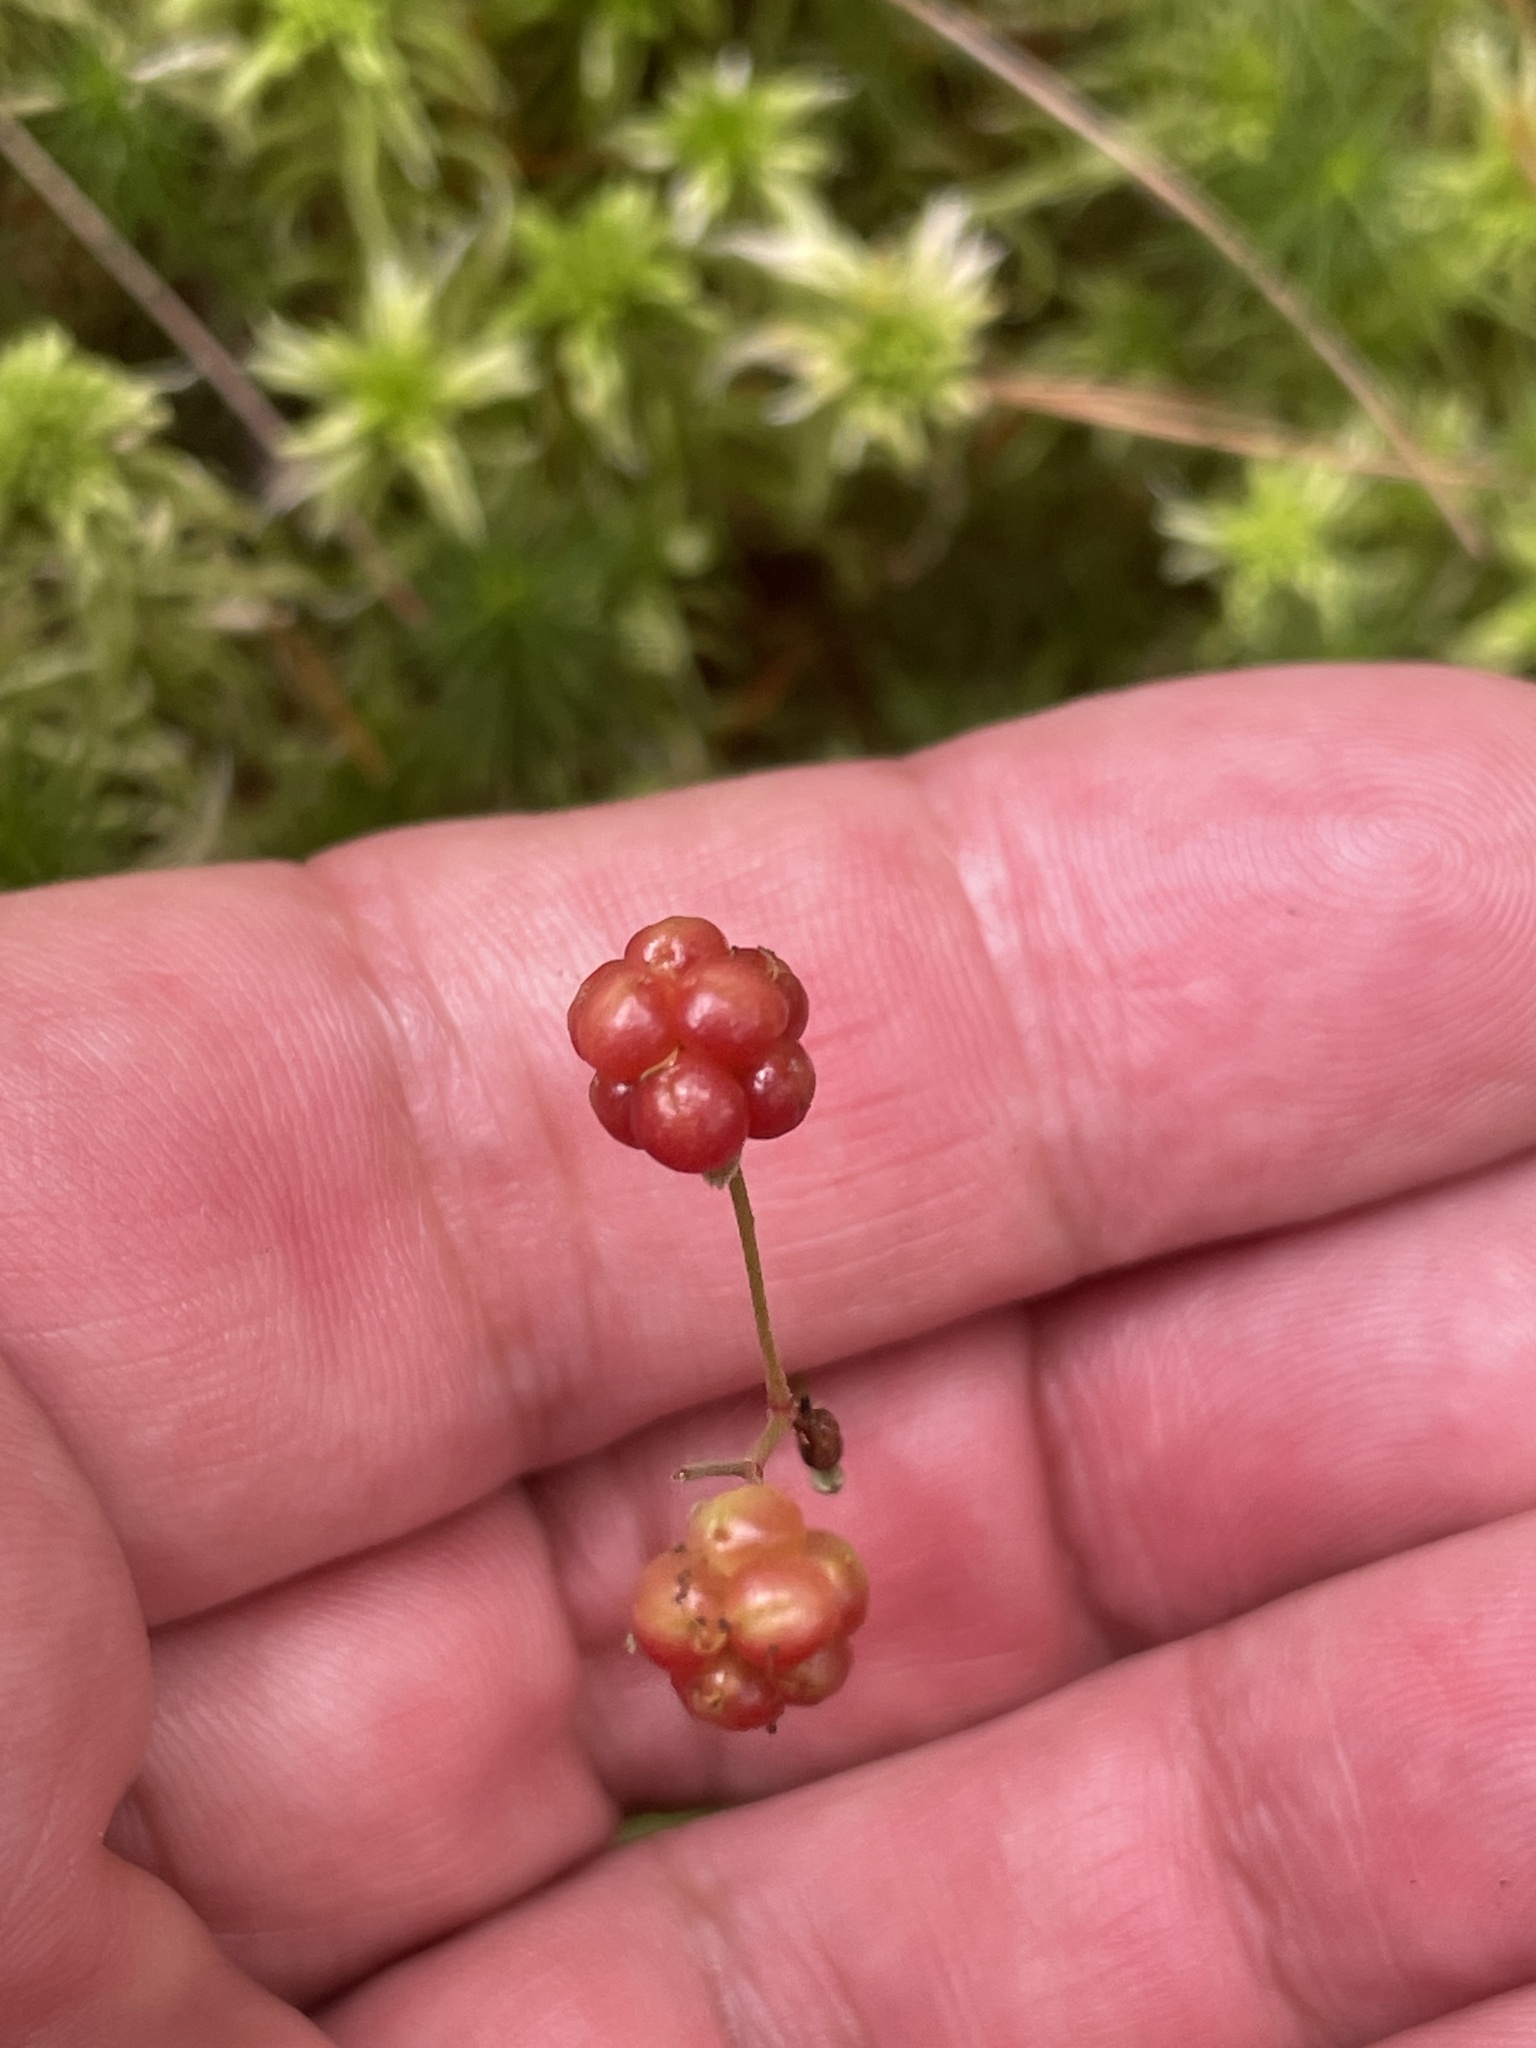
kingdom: Plantae
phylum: Tracheophyta
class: Magnoliopsida
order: Rosales
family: Rosaceae
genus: Rubus
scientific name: Rubus hispidus
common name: Running blackberry
